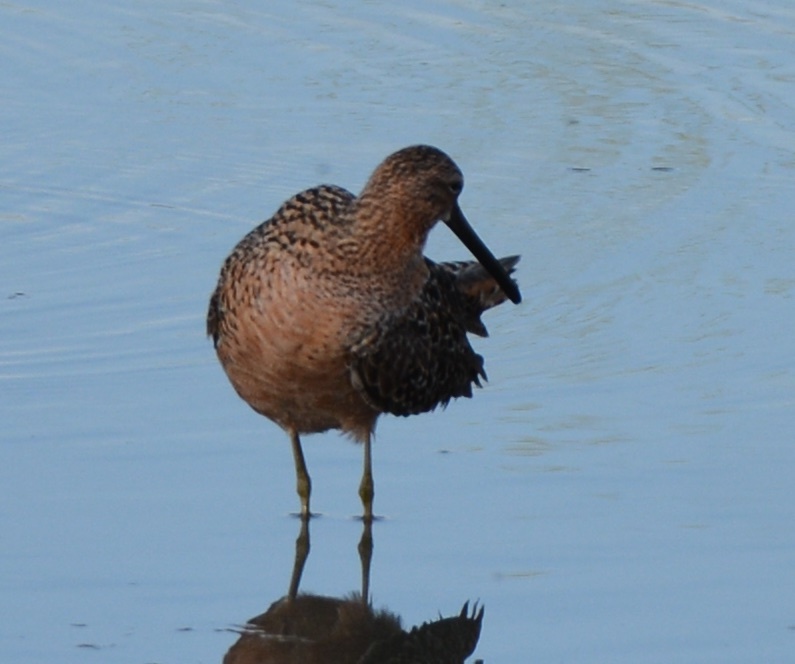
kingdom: Animalia
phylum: Chordata
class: Aves
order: Charadriiformes
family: Scolopacidae
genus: Limnodromus
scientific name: Limnodromus scolopaceus
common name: Long-billed dowitcher
